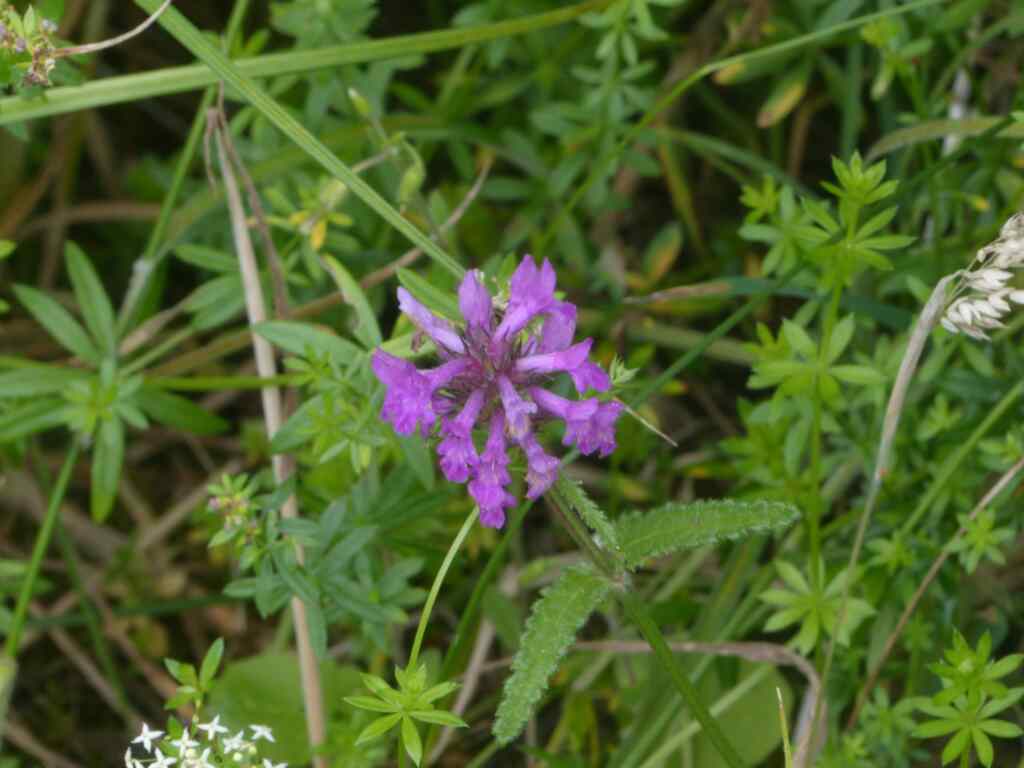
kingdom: Plantae
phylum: Tracheophyta
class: Magnoliopsida
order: Lamiales
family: Lamiaceae
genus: Betonica
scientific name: Betonica officinalis
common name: Bishop's-wort
